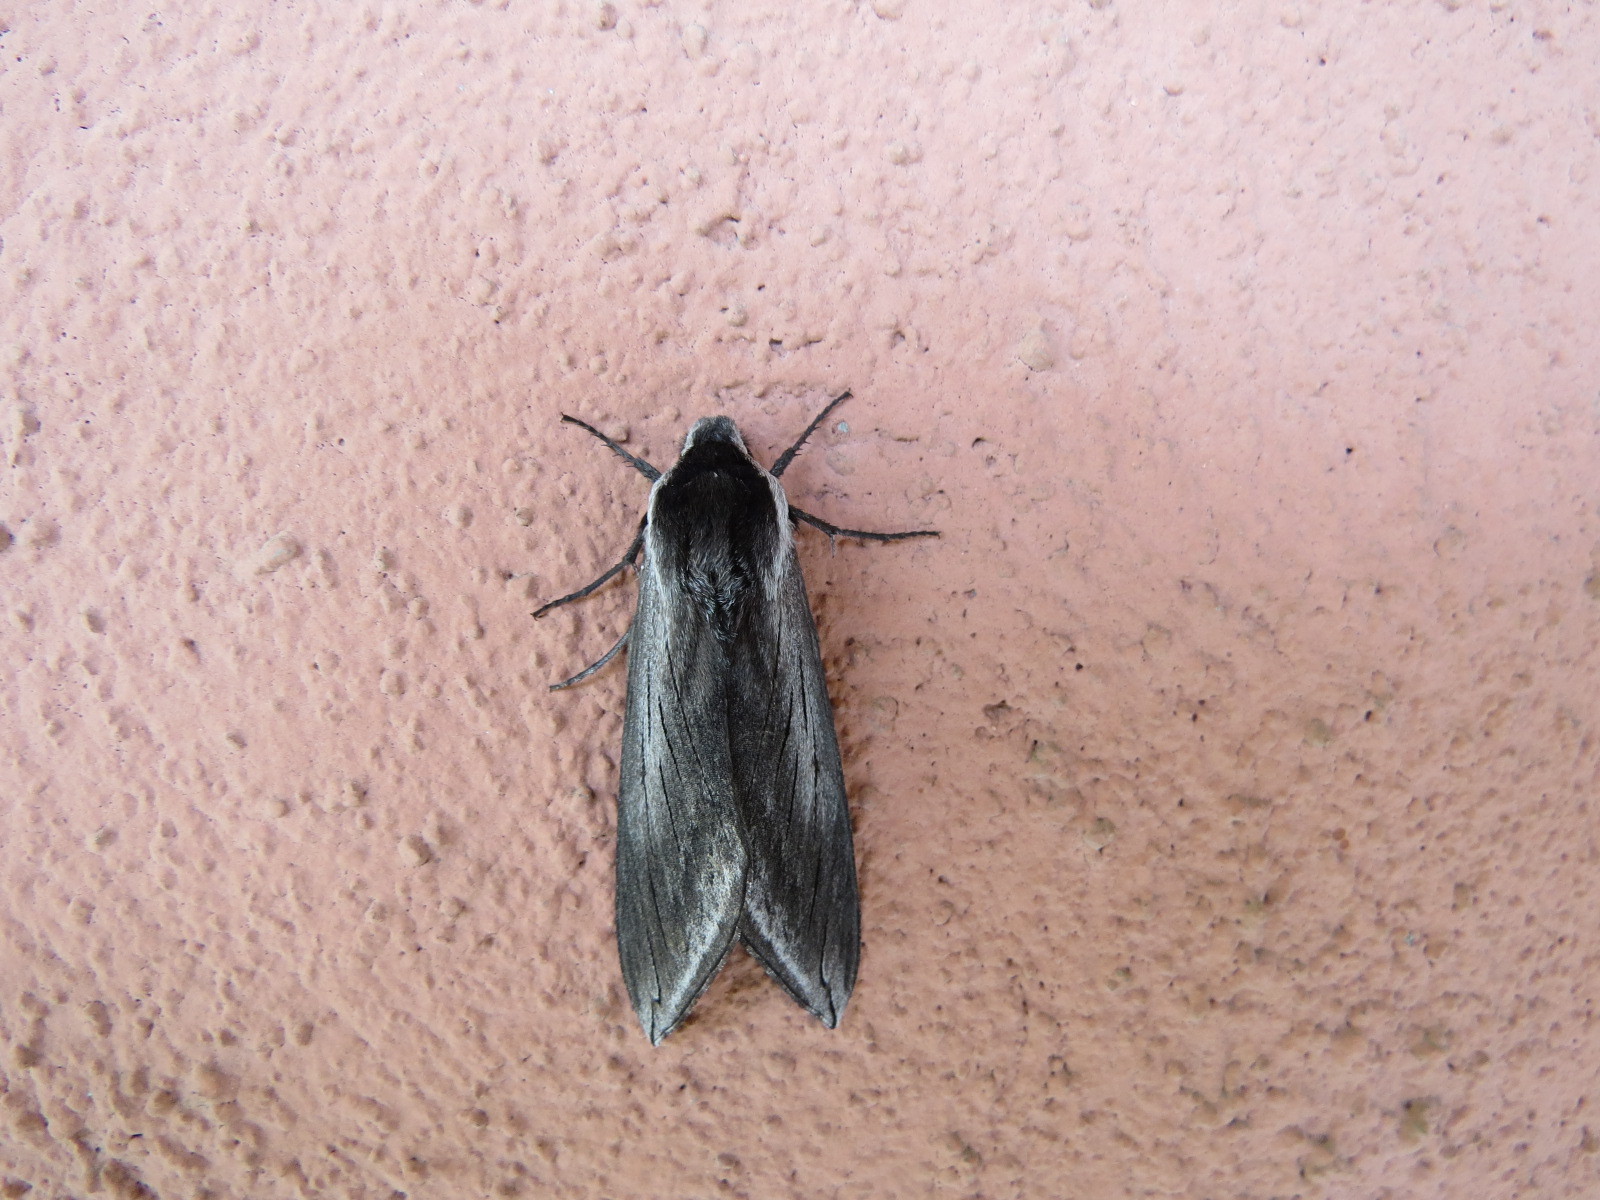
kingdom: Animalia
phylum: Arthropoda
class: Insecta
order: Lepidoptera
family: Sphingidae
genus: Sphinx
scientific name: Sphinx perelegans
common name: Elegant sphinx
